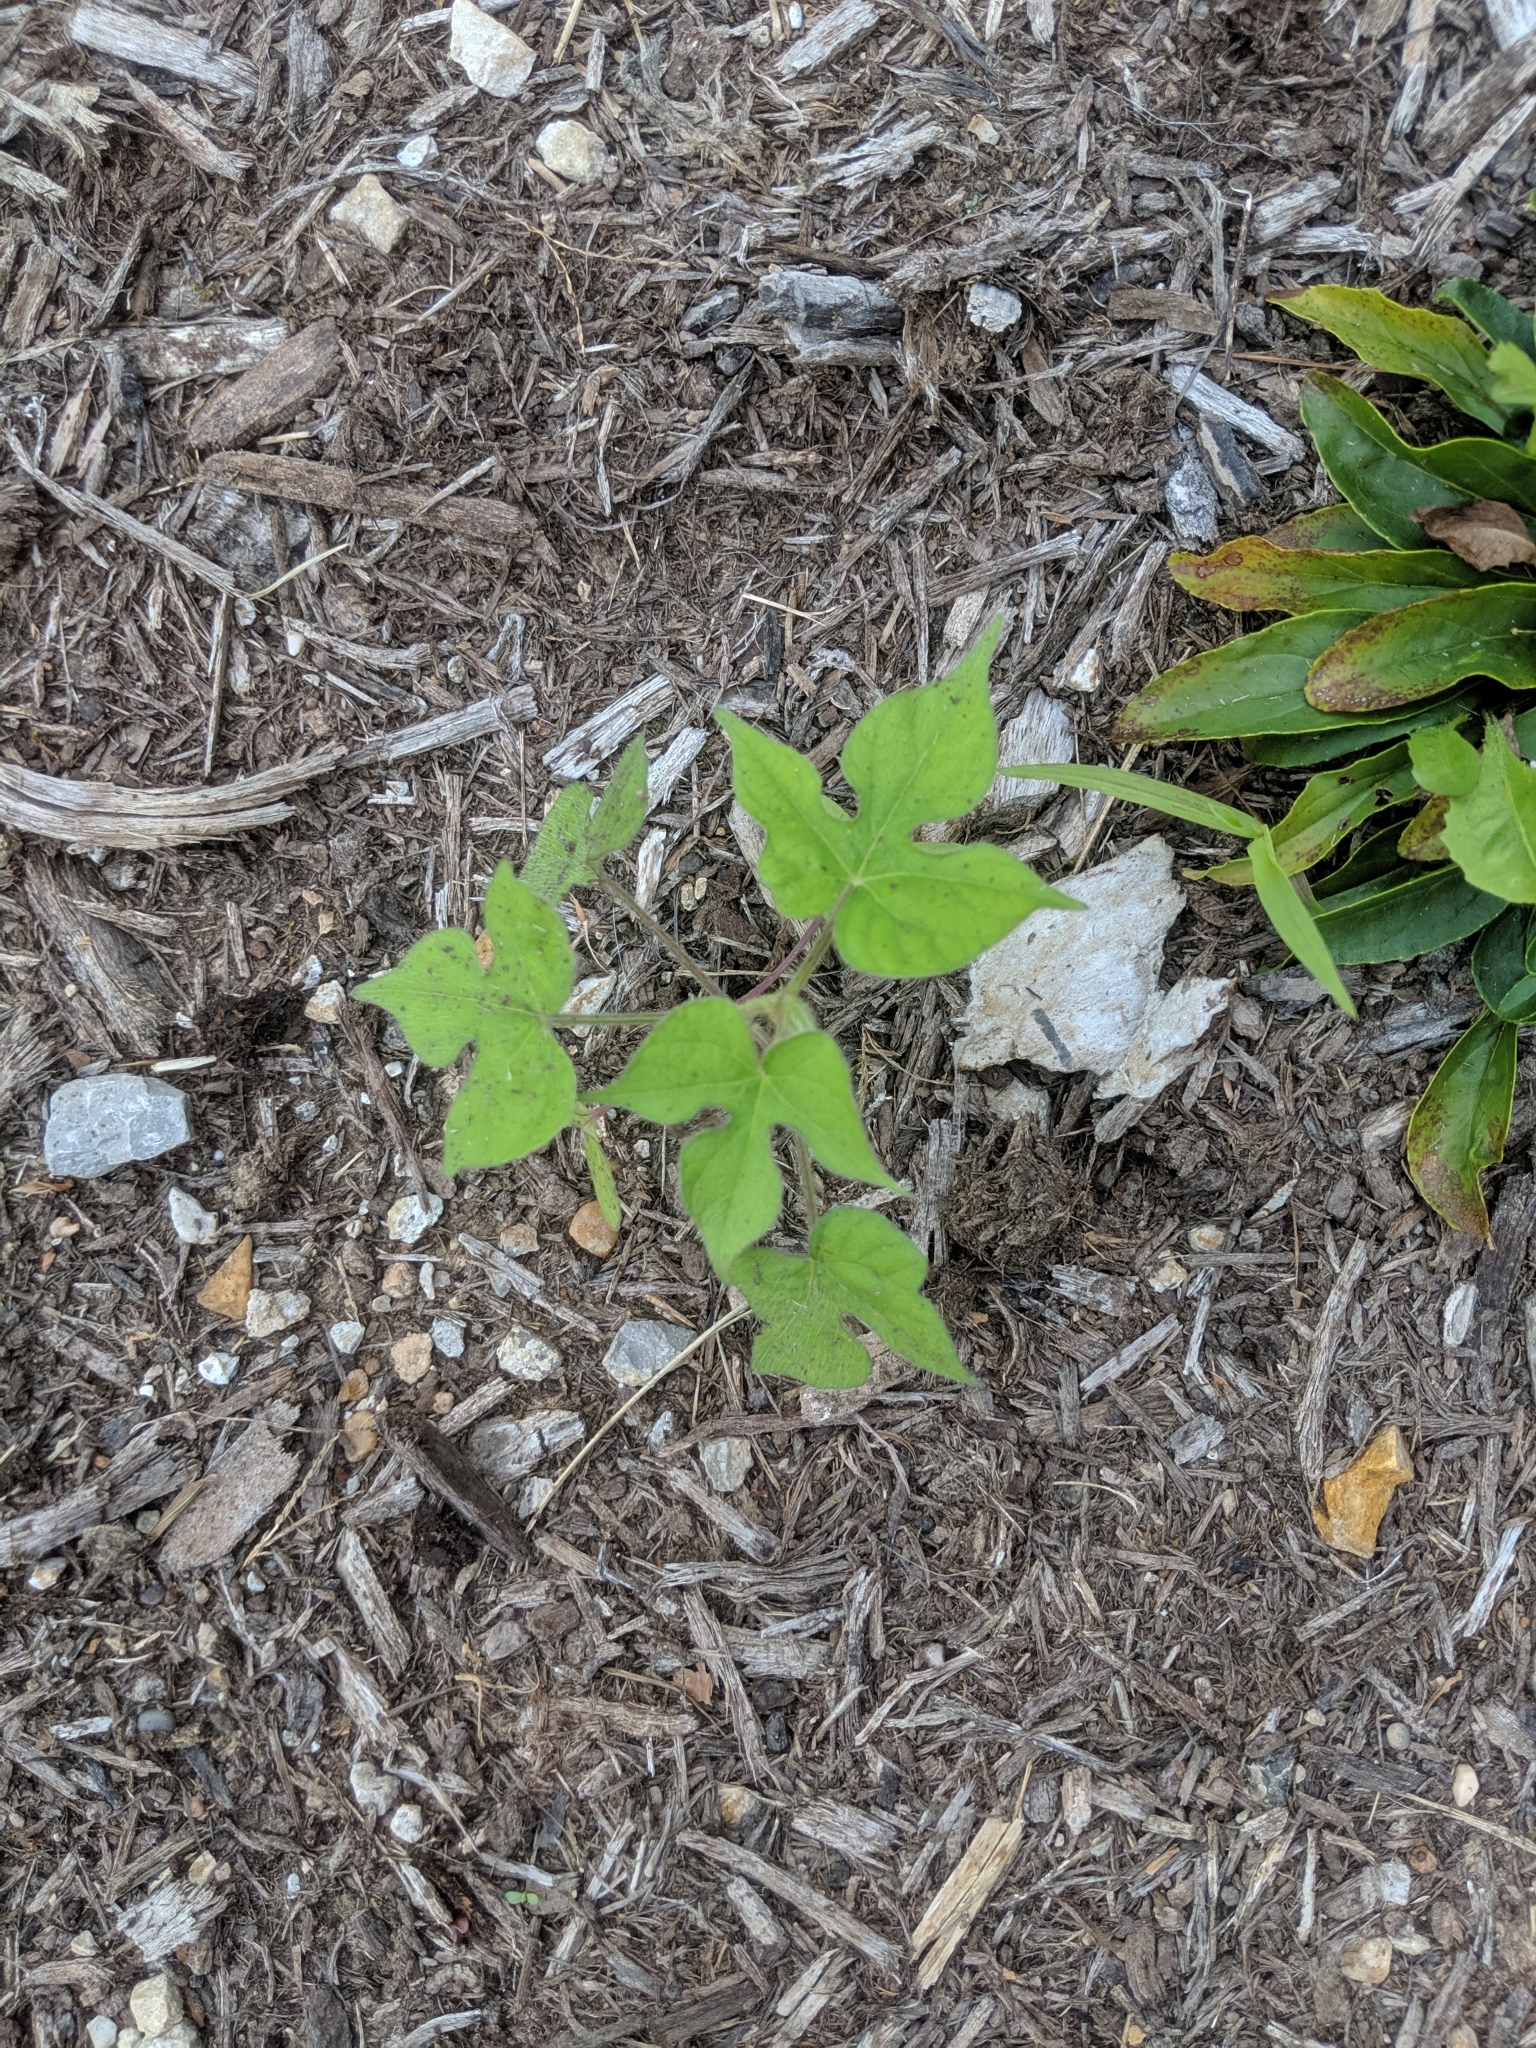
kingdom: Plantae
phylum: Tracheophyta
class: Magnoliopsida
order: Solanales
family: Convolvulaceae
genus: Ipomoea
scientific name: Ipomoea hederacea
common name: Ivy-leaved morning-glory
